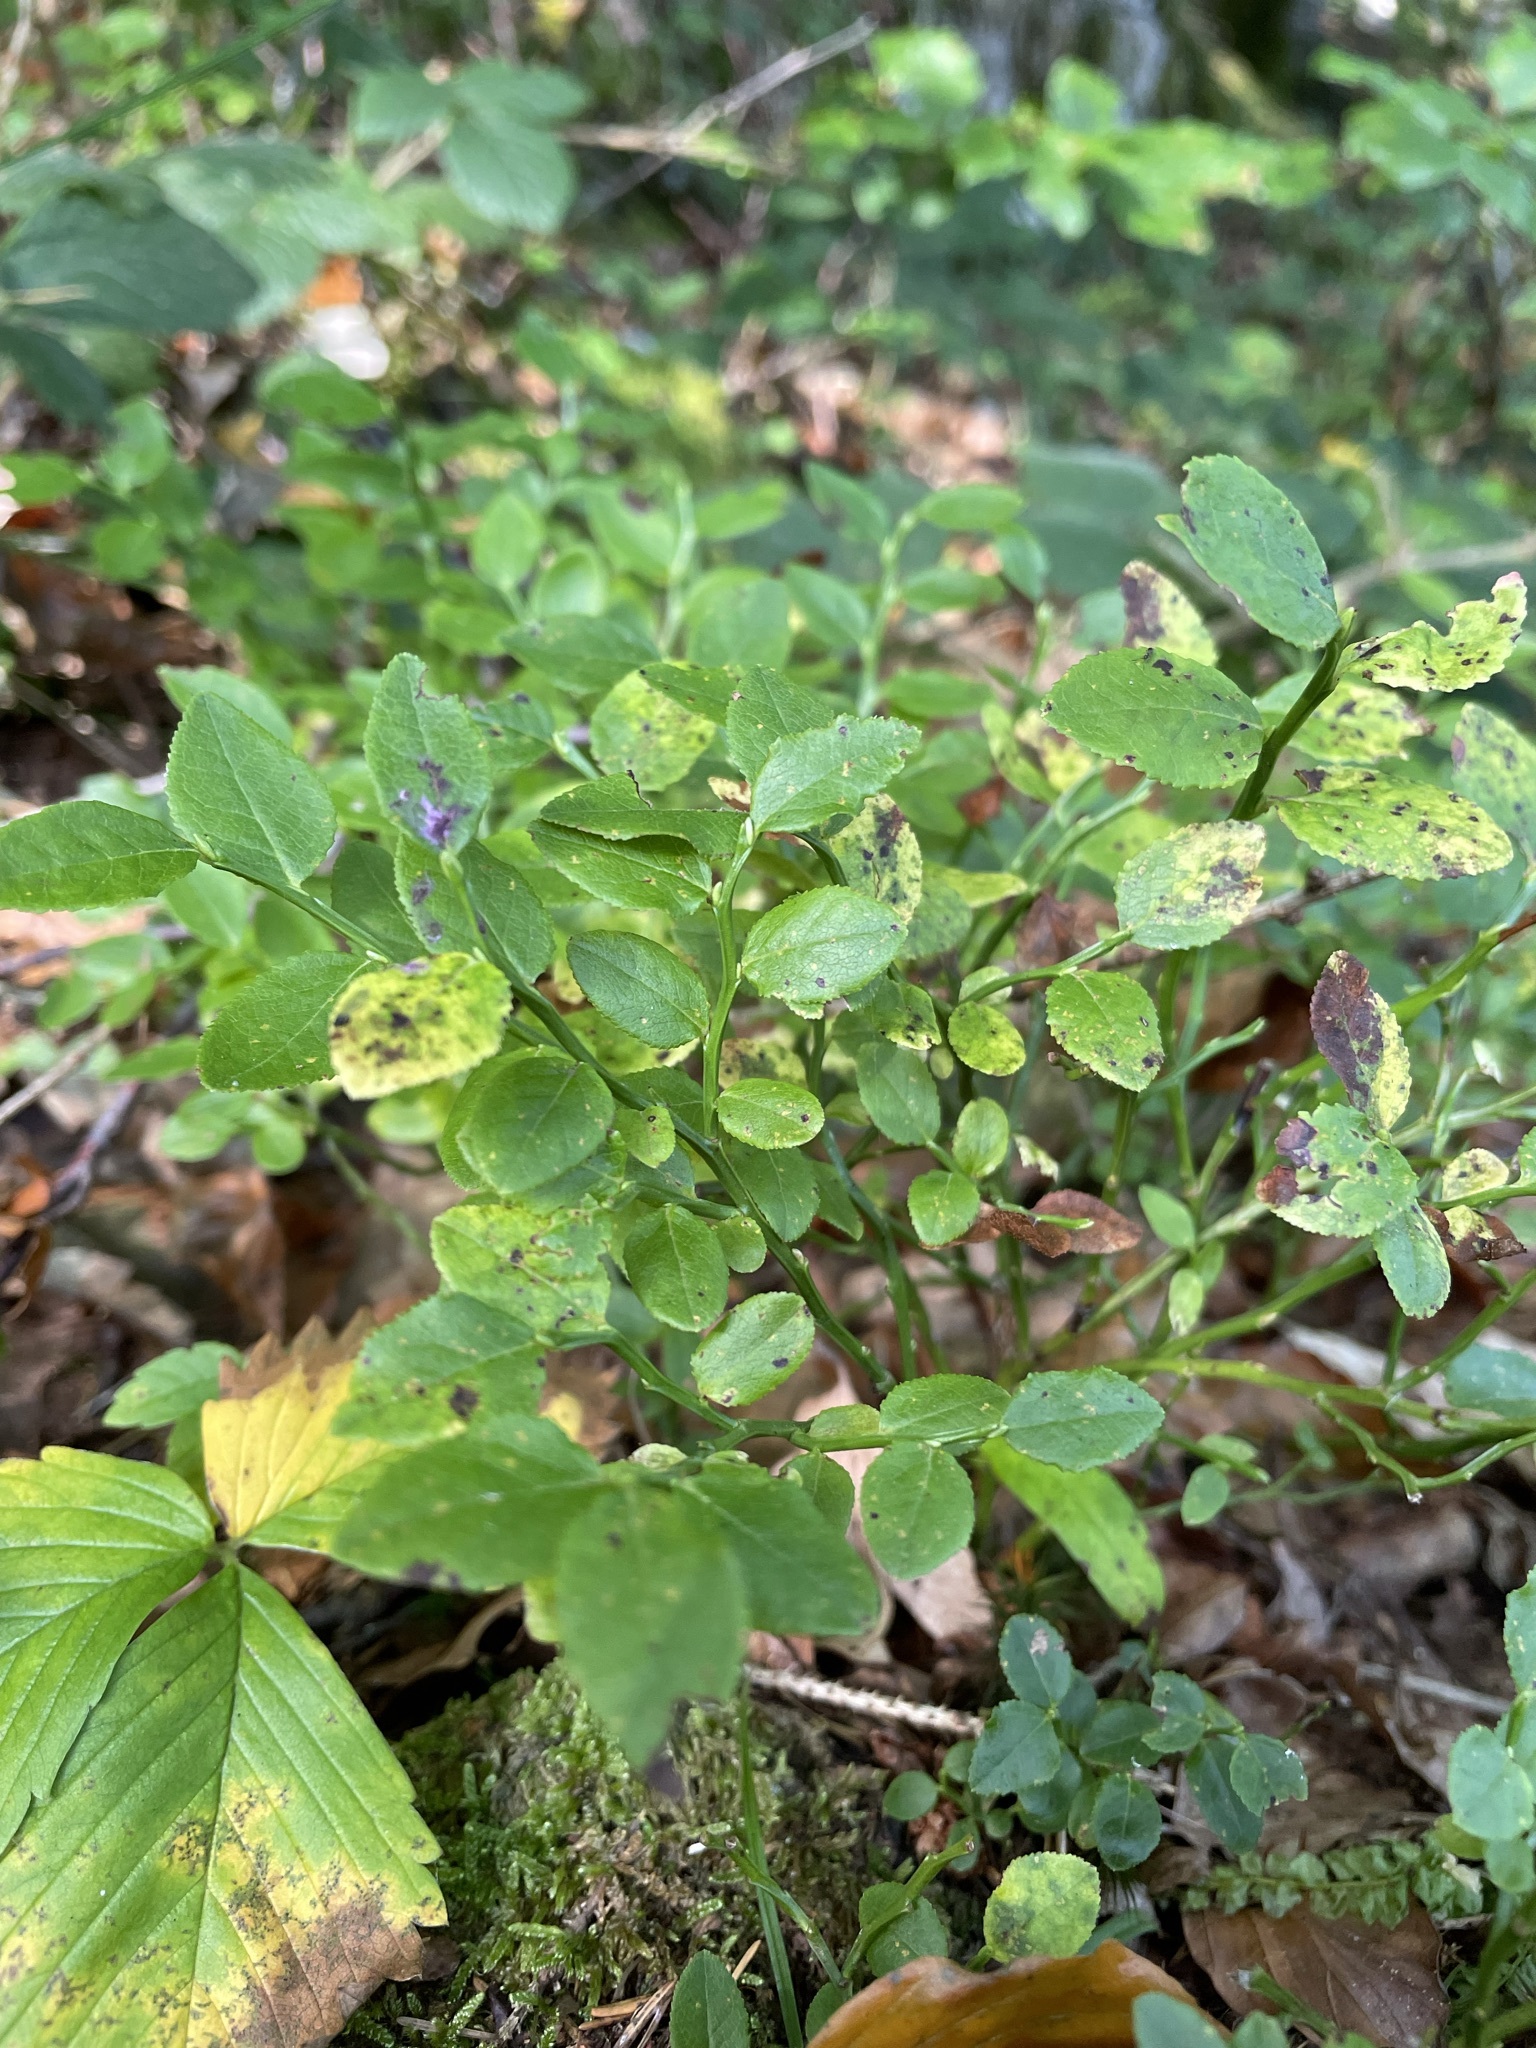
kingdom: Plantae
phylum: Tracheophyta
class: Magnoliopsida
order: Ericales
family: Ericaceae
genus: Vaccinium
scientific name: Vaccinium myrtillus
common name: Bilberry
